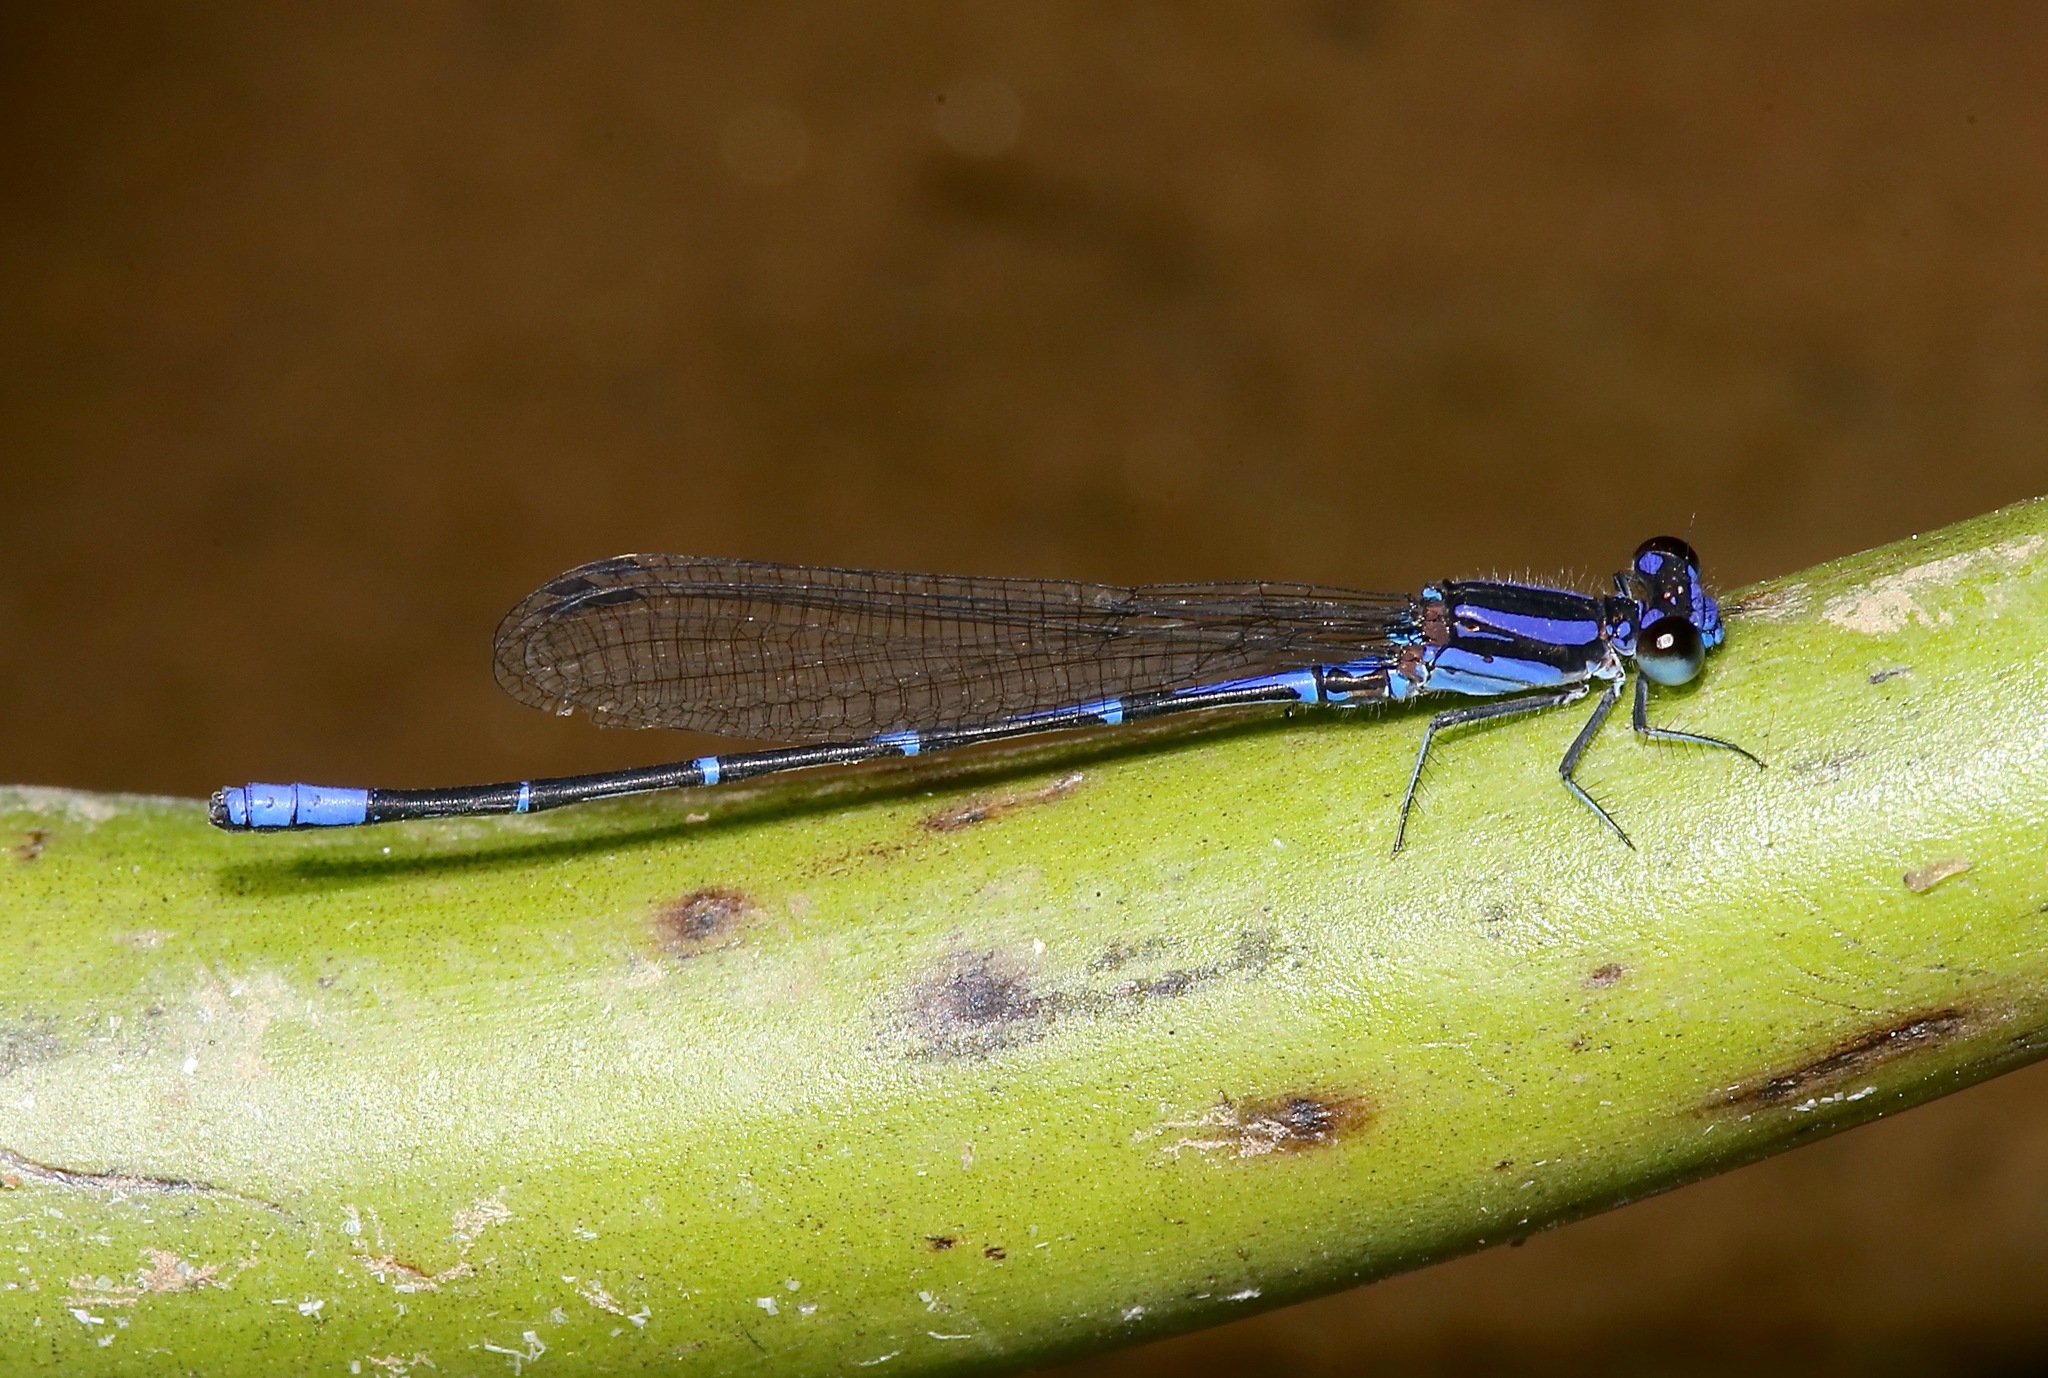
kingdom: Animalia
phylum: Arthropoda
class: Insecta
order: Odonata
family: Coenagrionidae
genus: Argia
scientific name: Argia oculata
